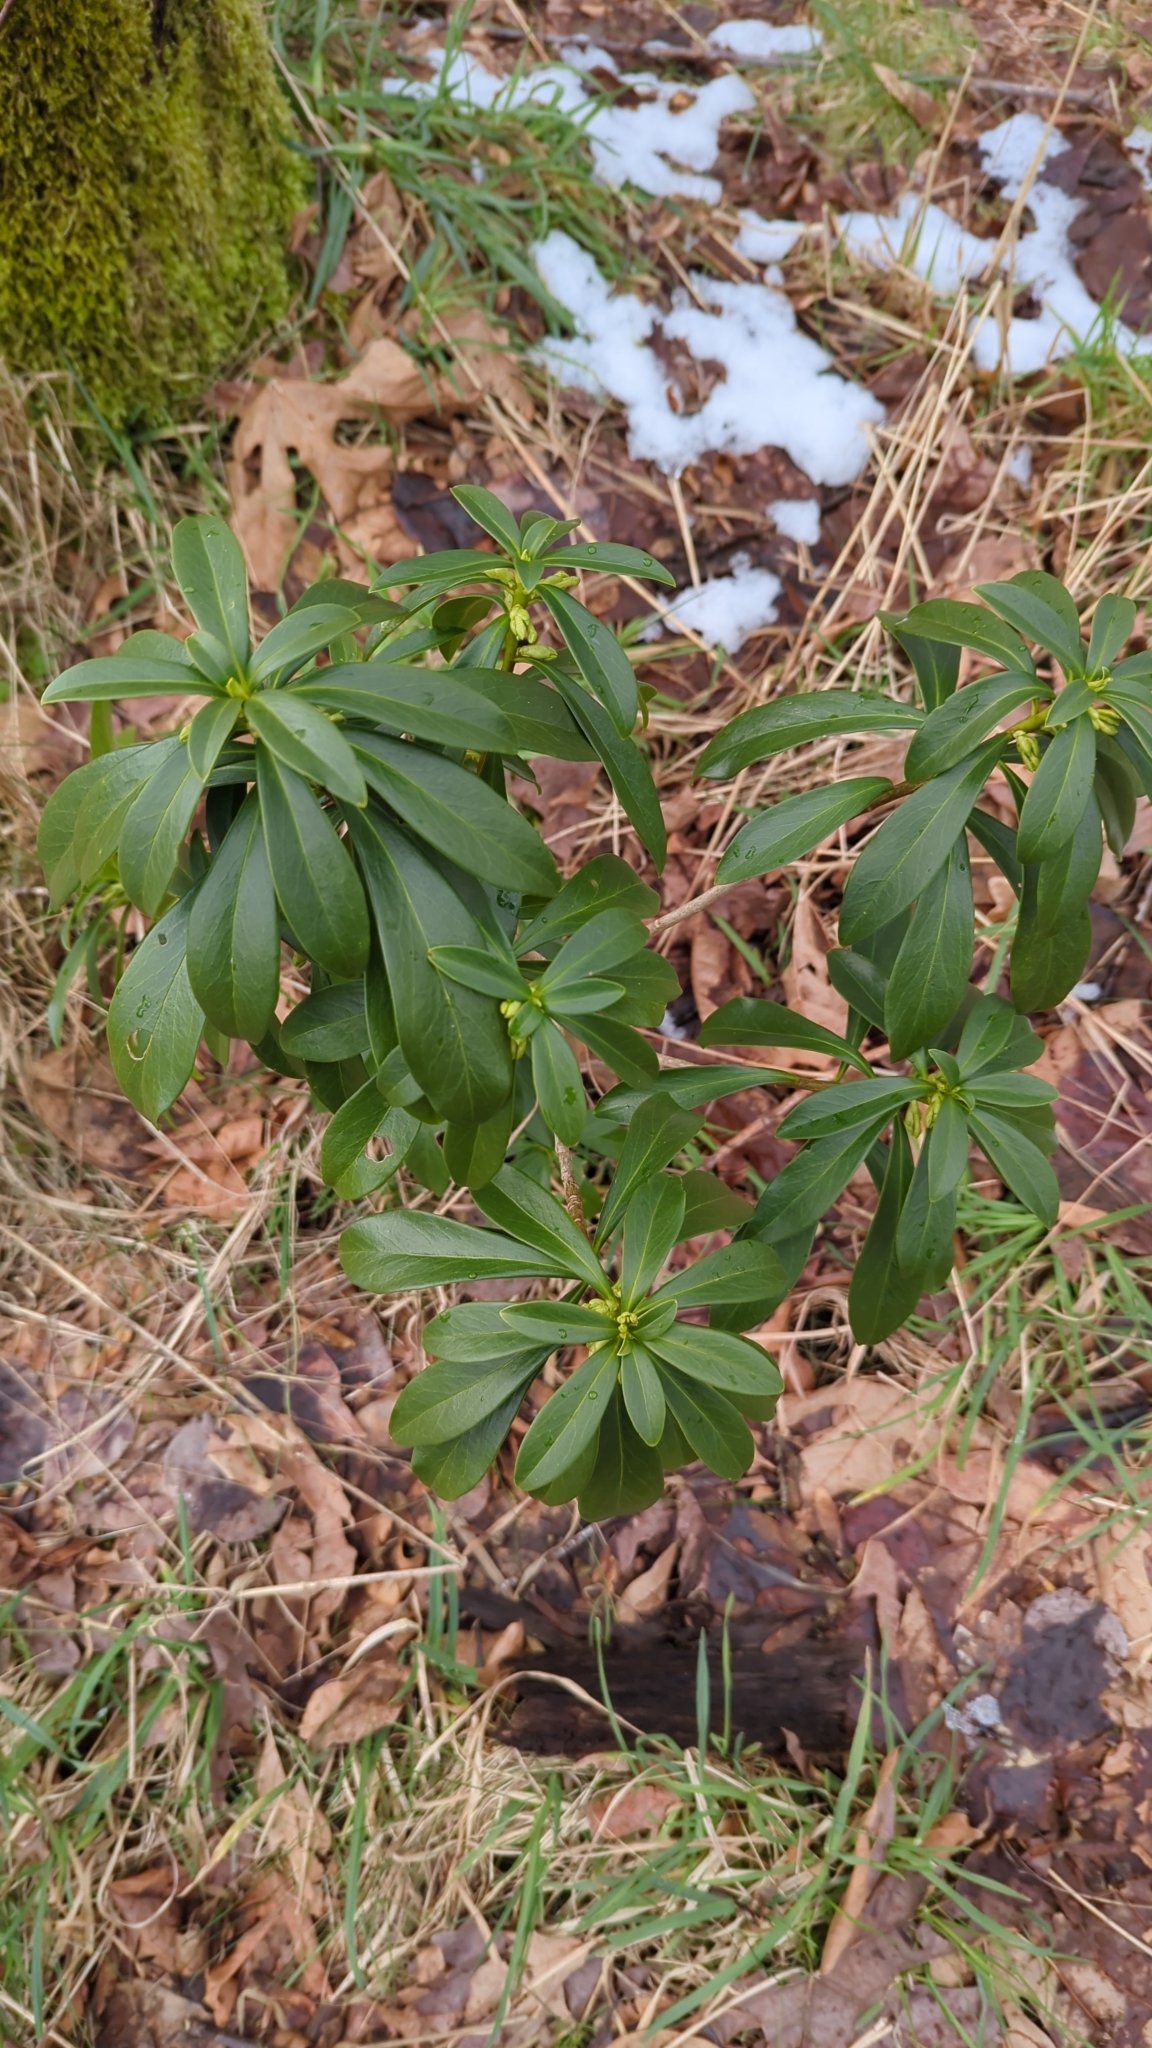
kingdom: Plantae
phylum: Tracheophyta
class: Magnoliopsida
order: Malvales
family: Thymelaeaceae
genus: Daphne
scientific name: Daphne laureola
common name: Spurge-laurel
